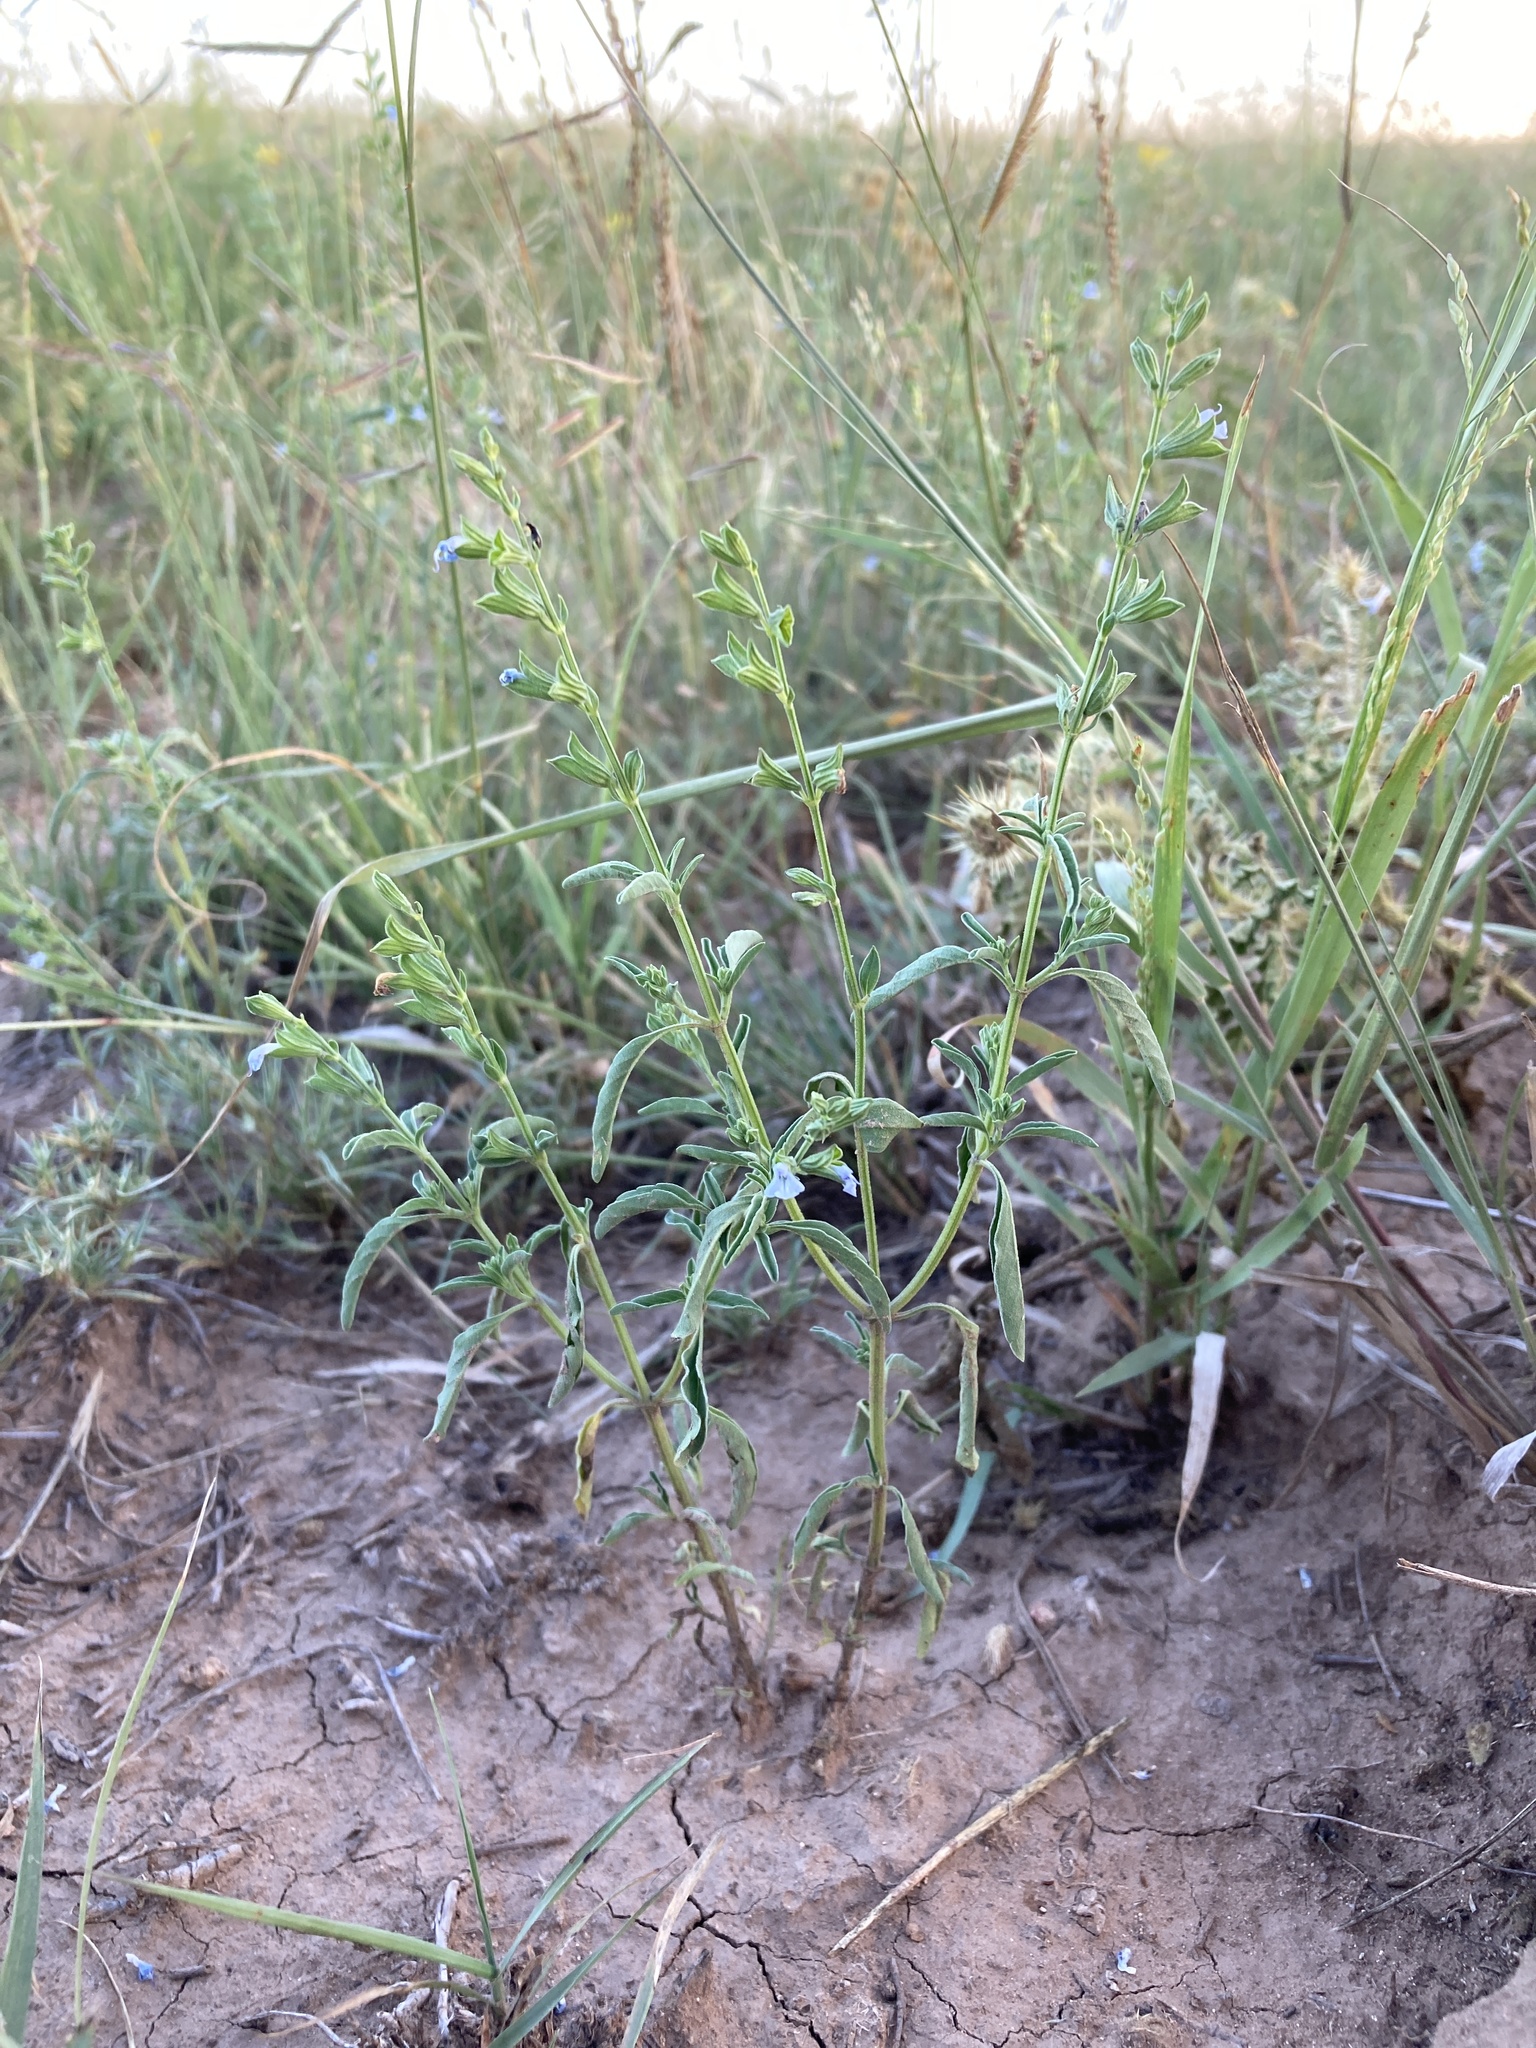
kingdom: Plantae
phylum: Tracheophyta
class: Magnoliopsida
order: Lamiales
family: Lamiaceae
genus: Salvia
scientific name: Salvia reflexa
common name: Mintweed
